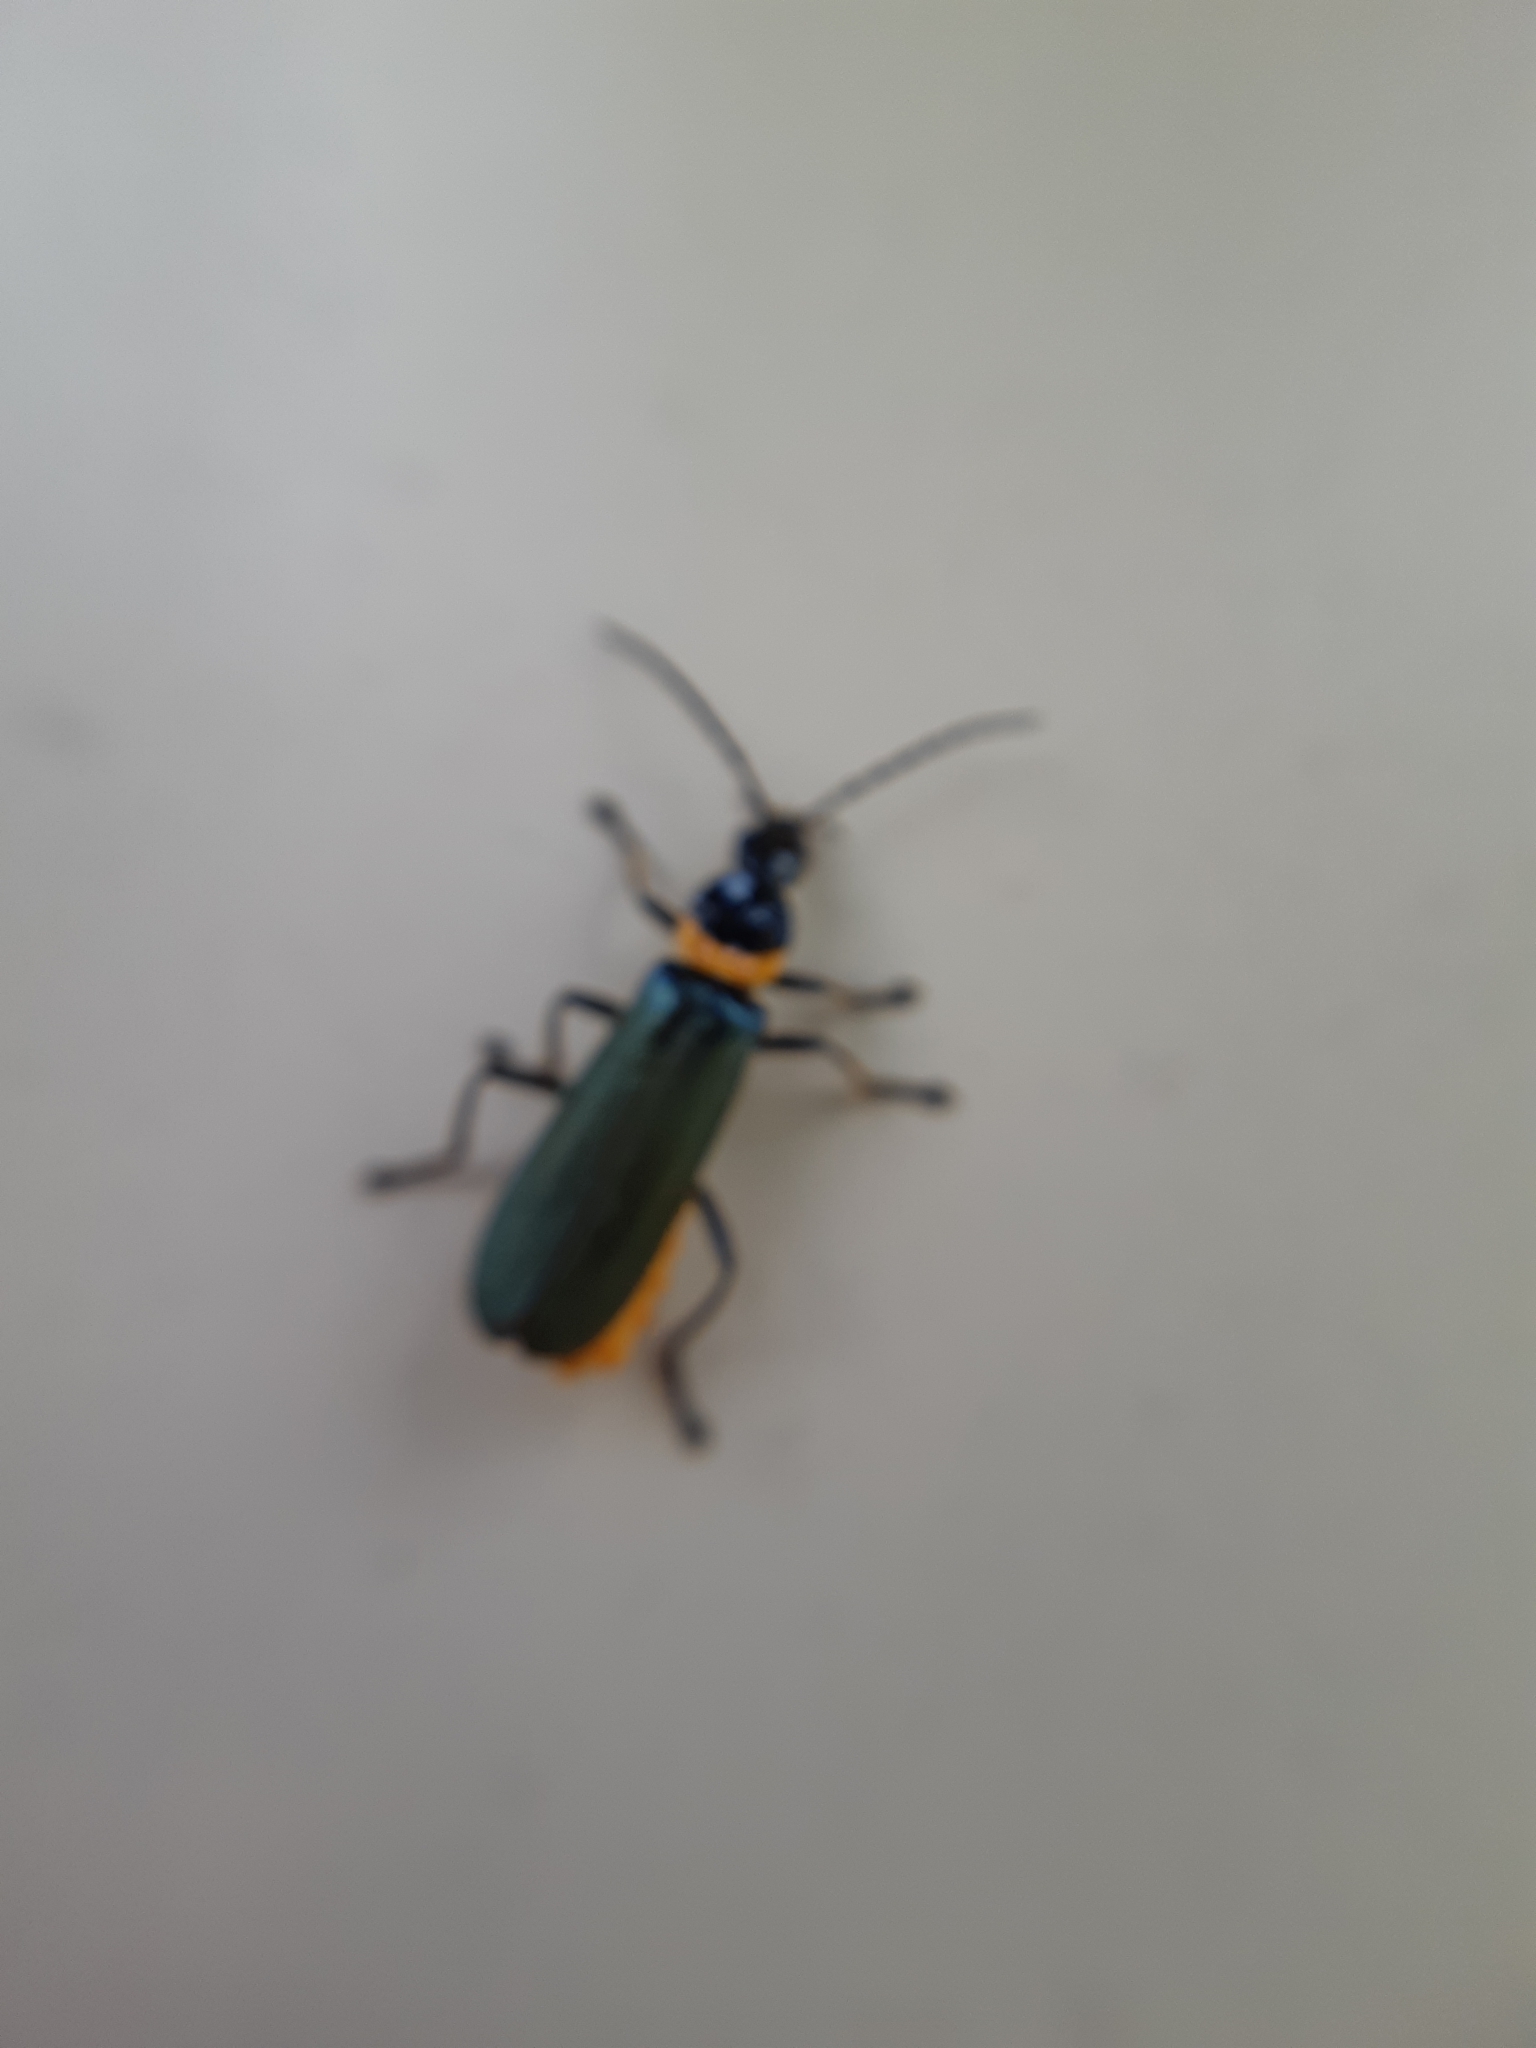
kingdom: Animalia
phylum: Arthropoda
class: Insecta
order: Coleoptera
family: Cantharidae
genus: Chauliognathus
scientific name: Chauliognathus
